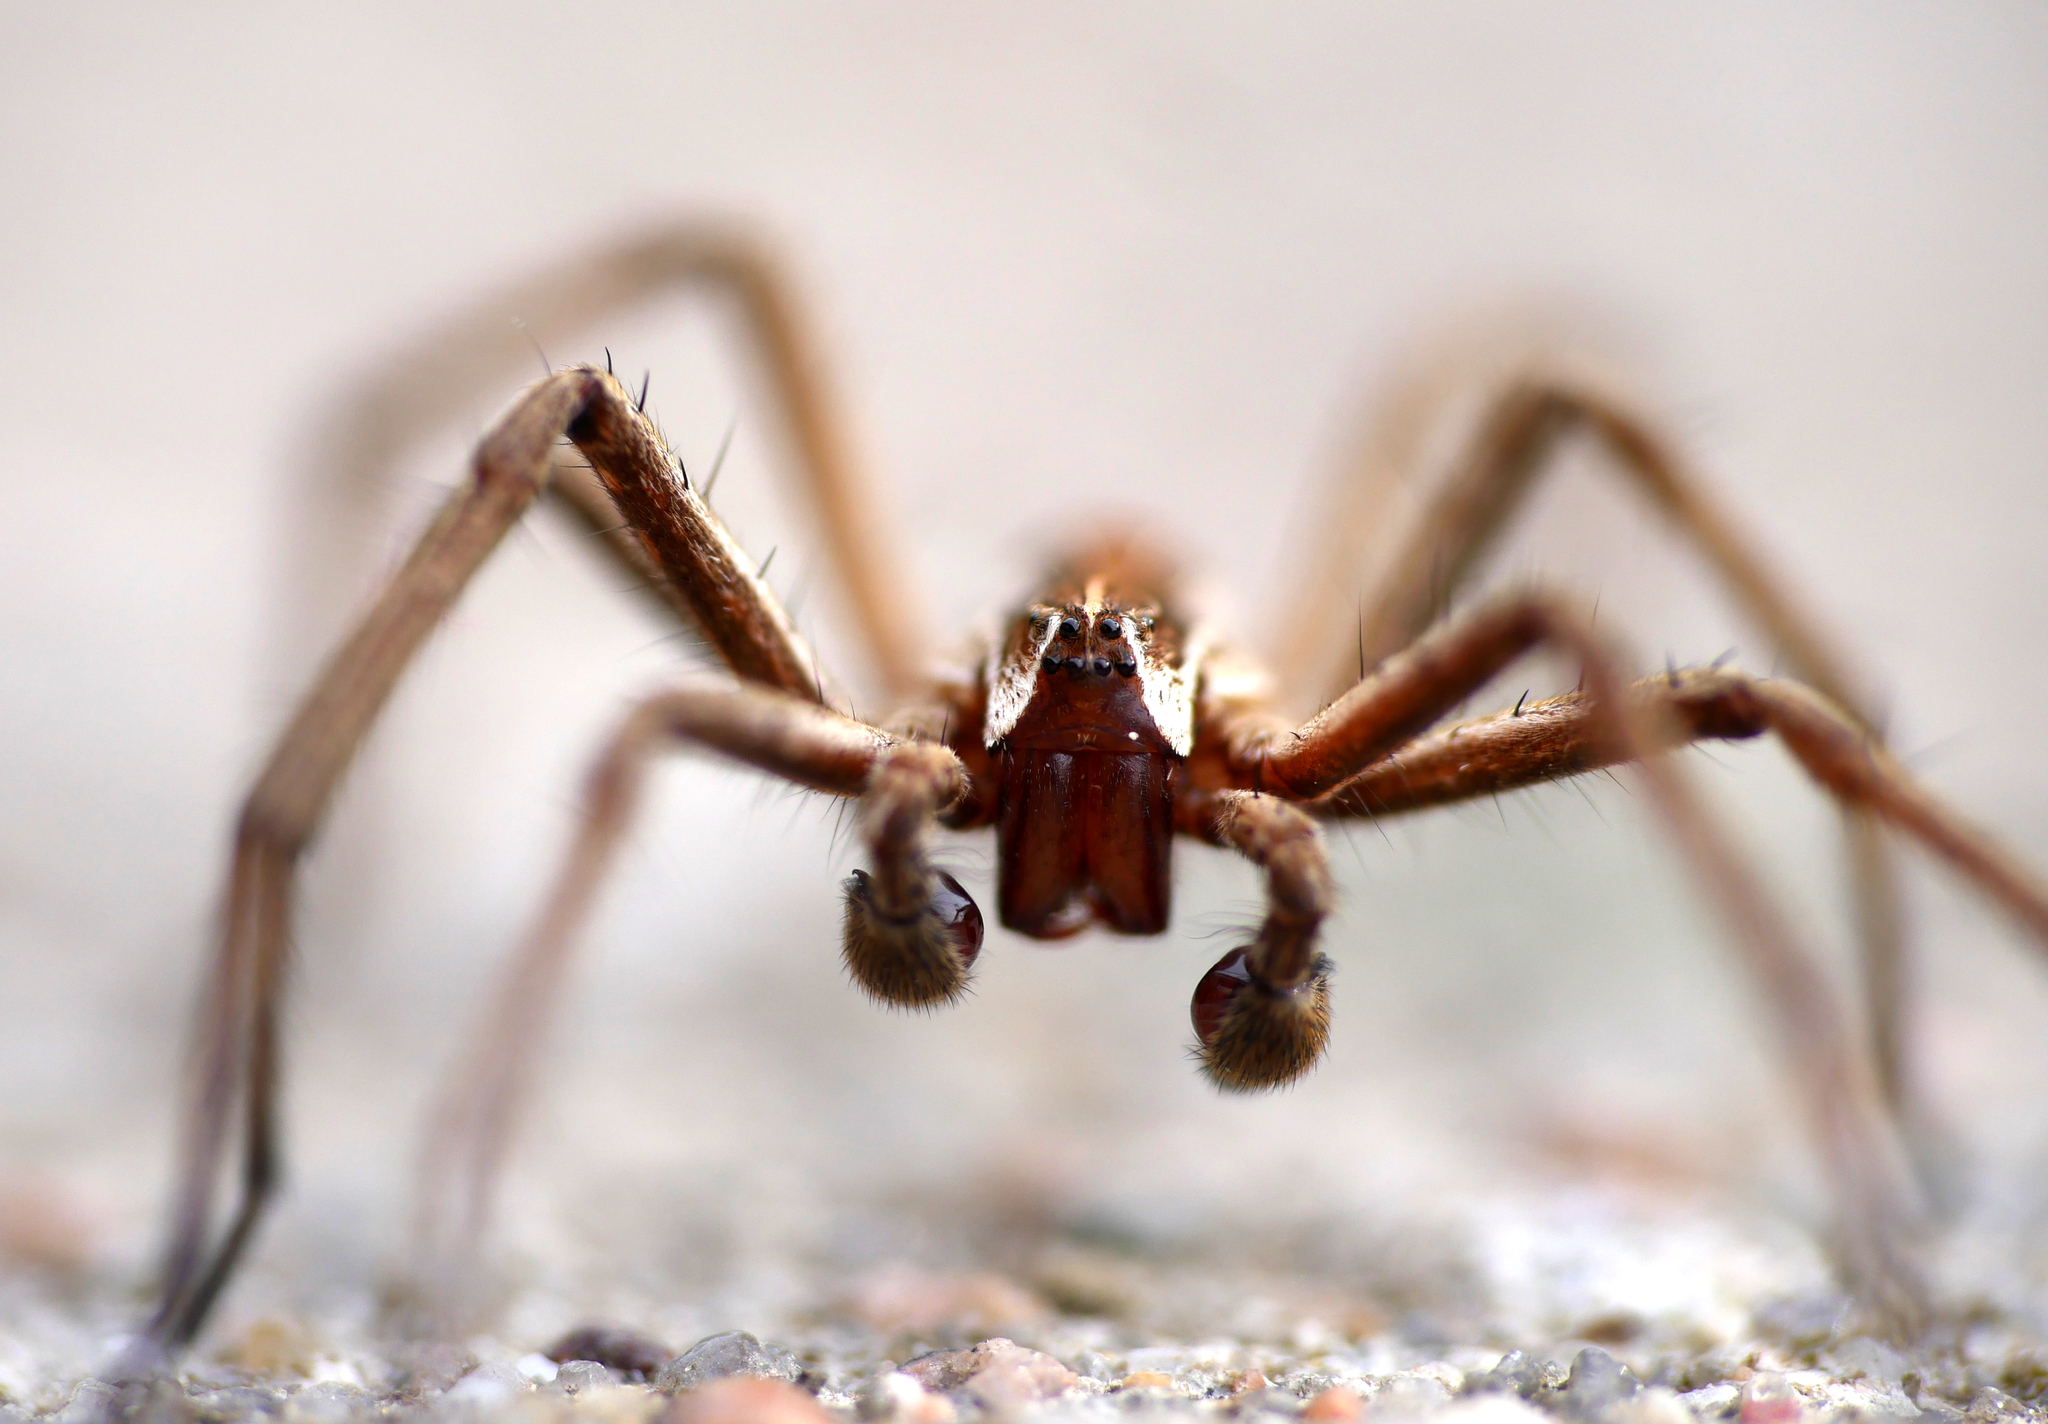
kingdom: Animalia
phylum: Arthropoda
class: Arachnida
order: Araneae
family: Pisauridae
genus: Pisaura
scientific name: Pisaura mirabilis
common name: Tent spider
